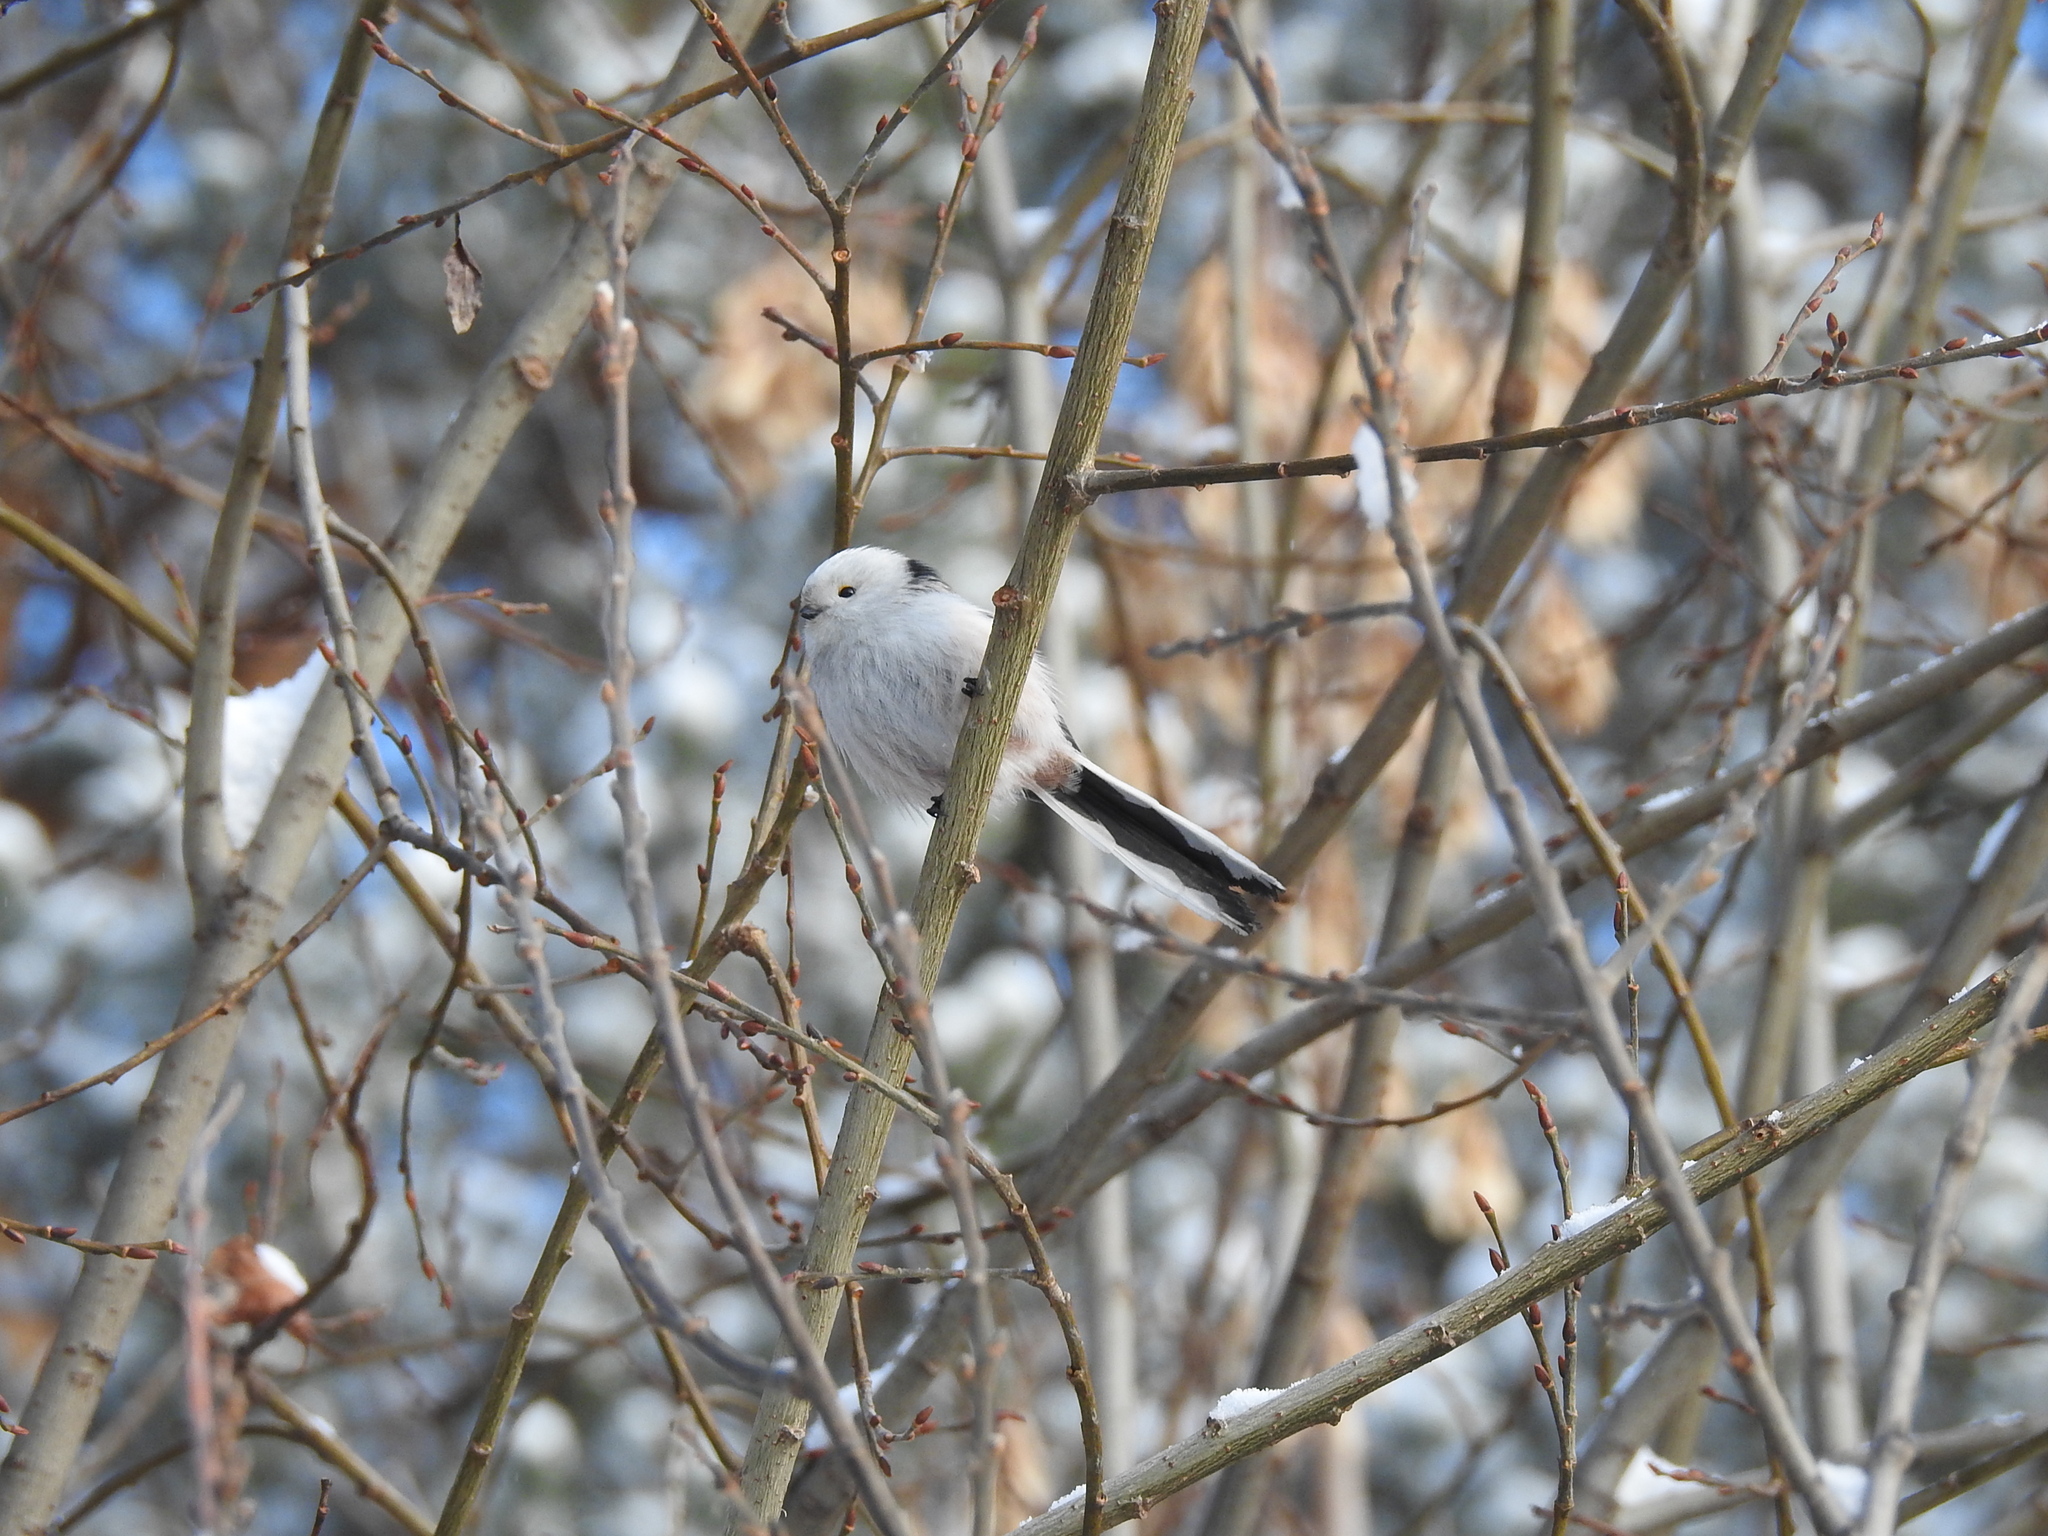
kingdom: Animalia
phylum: Chordata
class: Aves
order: Passeriformes
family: Aegithalidae
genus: Aegithalos
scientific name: Aegithalos caudatus
